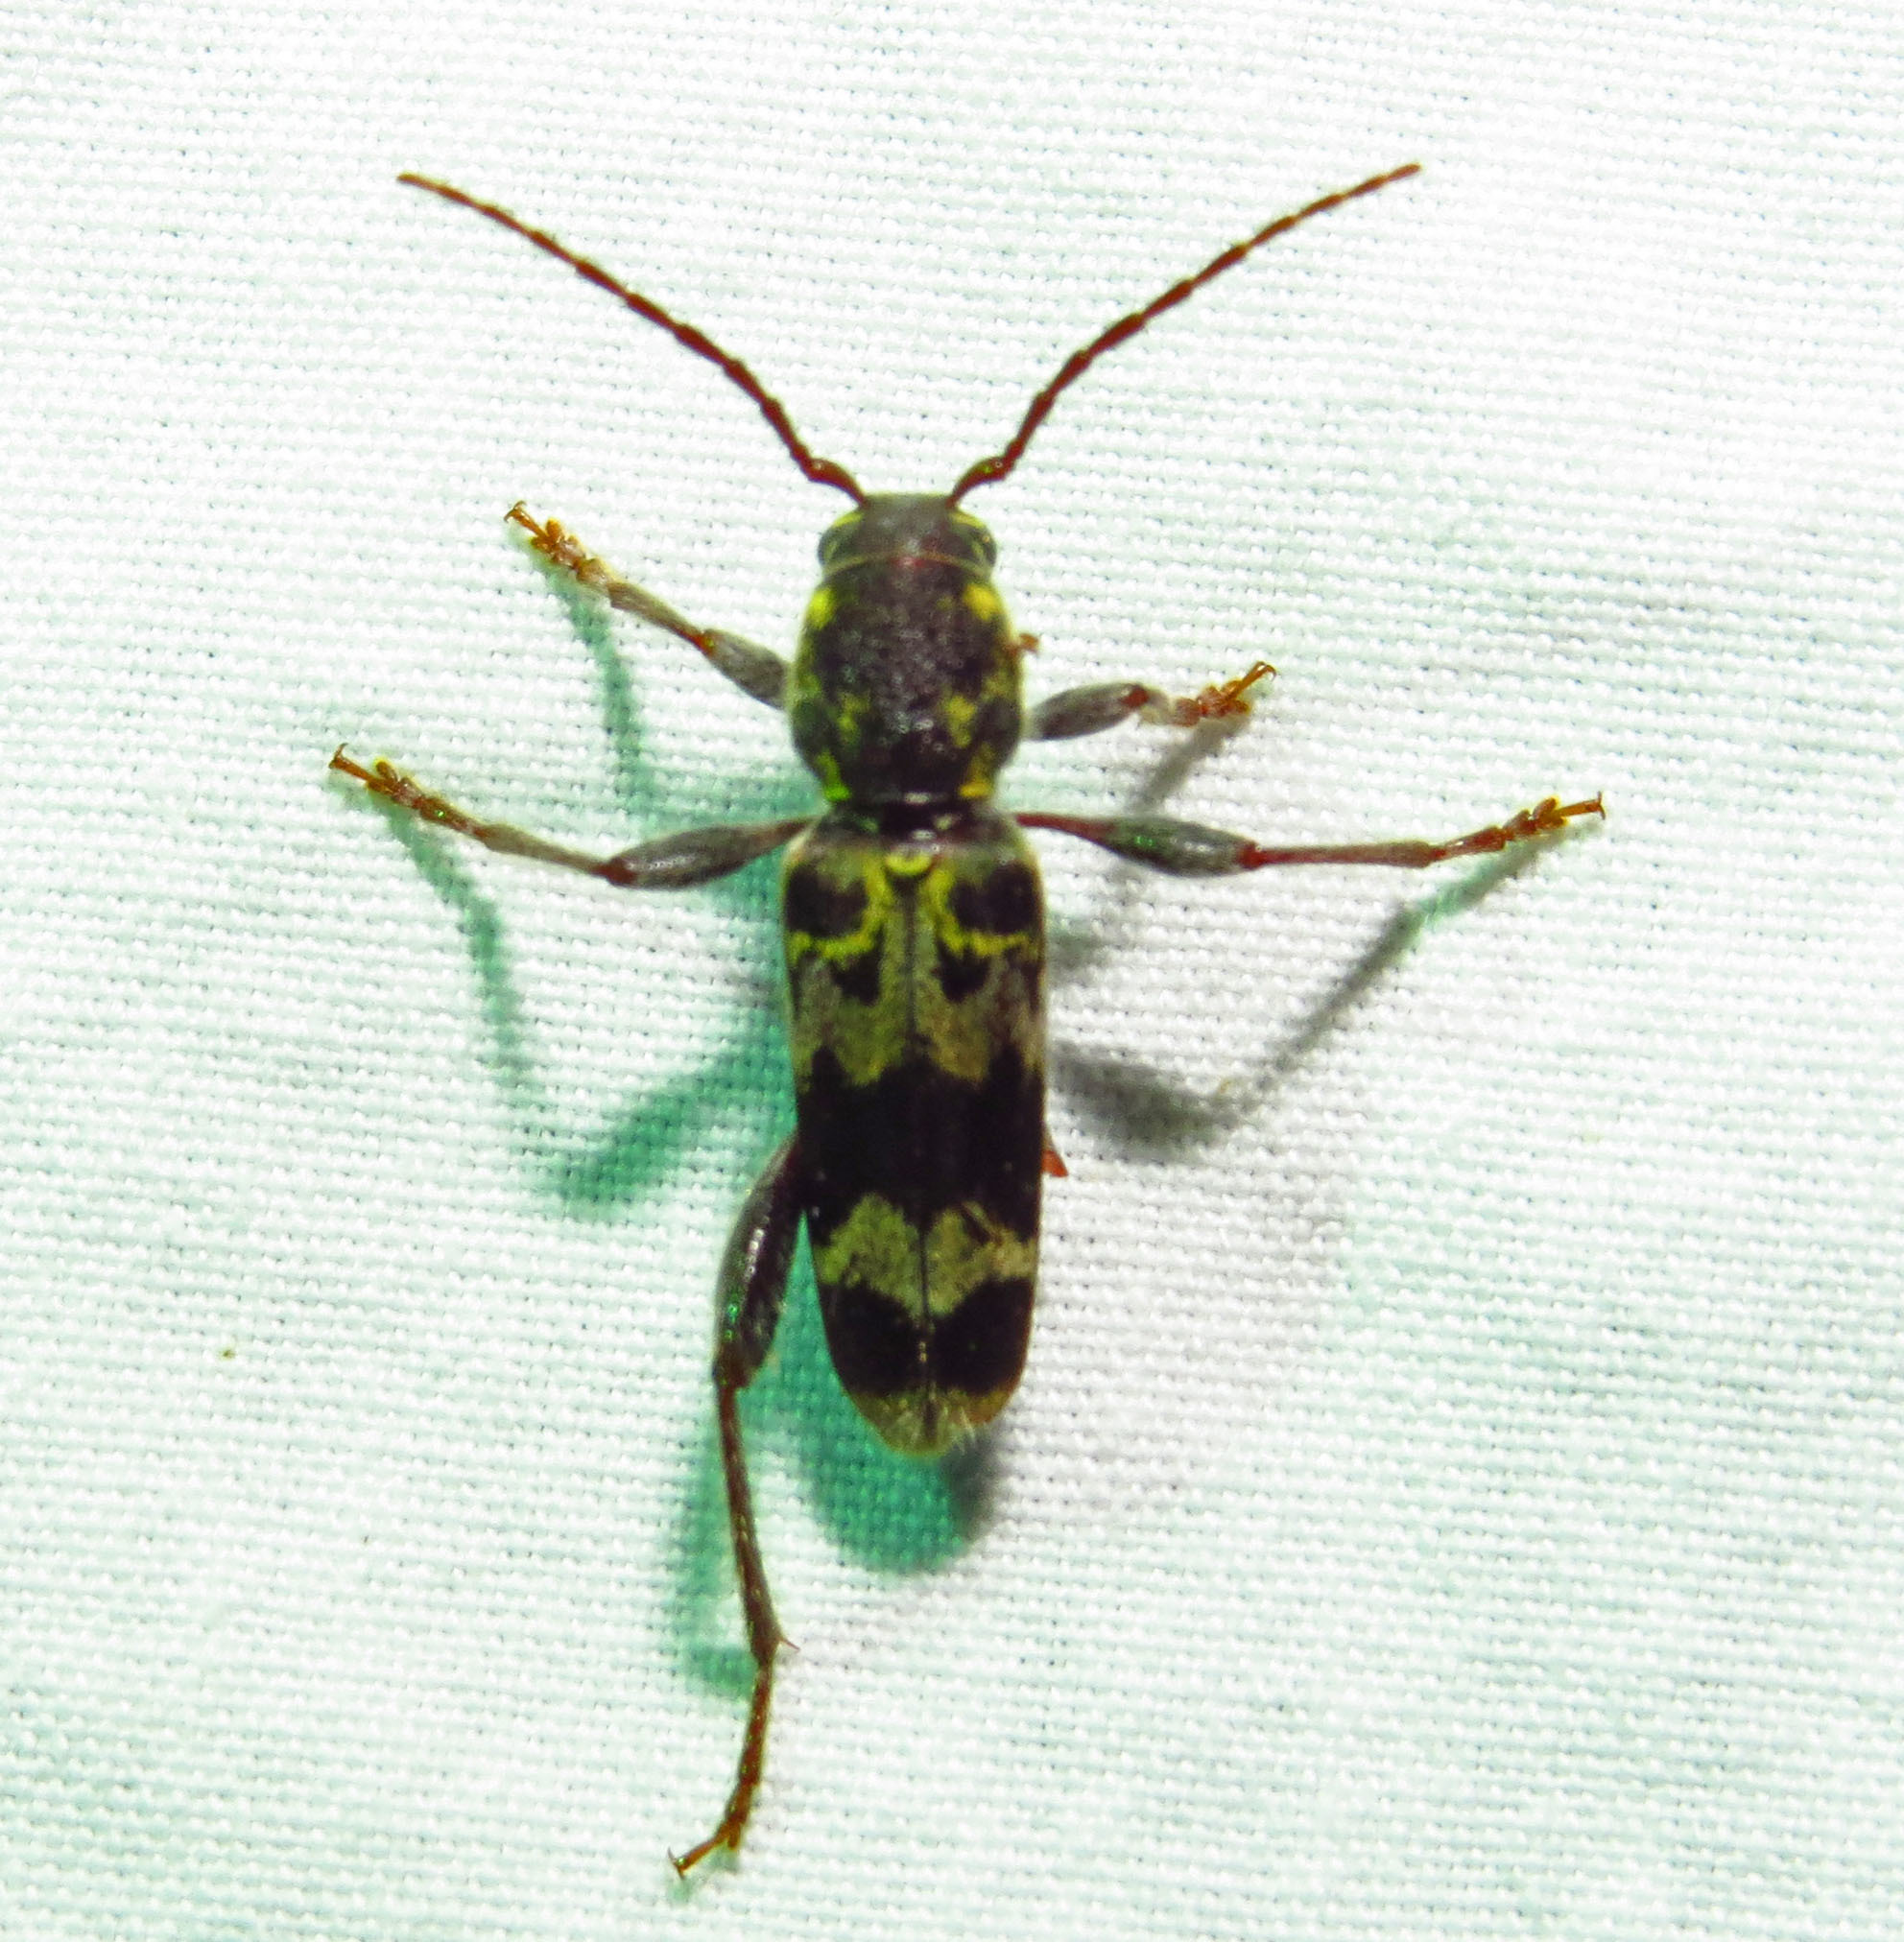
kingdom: Animalia
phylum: Arthropoda
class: Insecta
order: Coleoptera
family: Cerambycidae
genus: Xylotrechus
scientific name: Xylotrechus colonus
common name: Long-horned beetle
